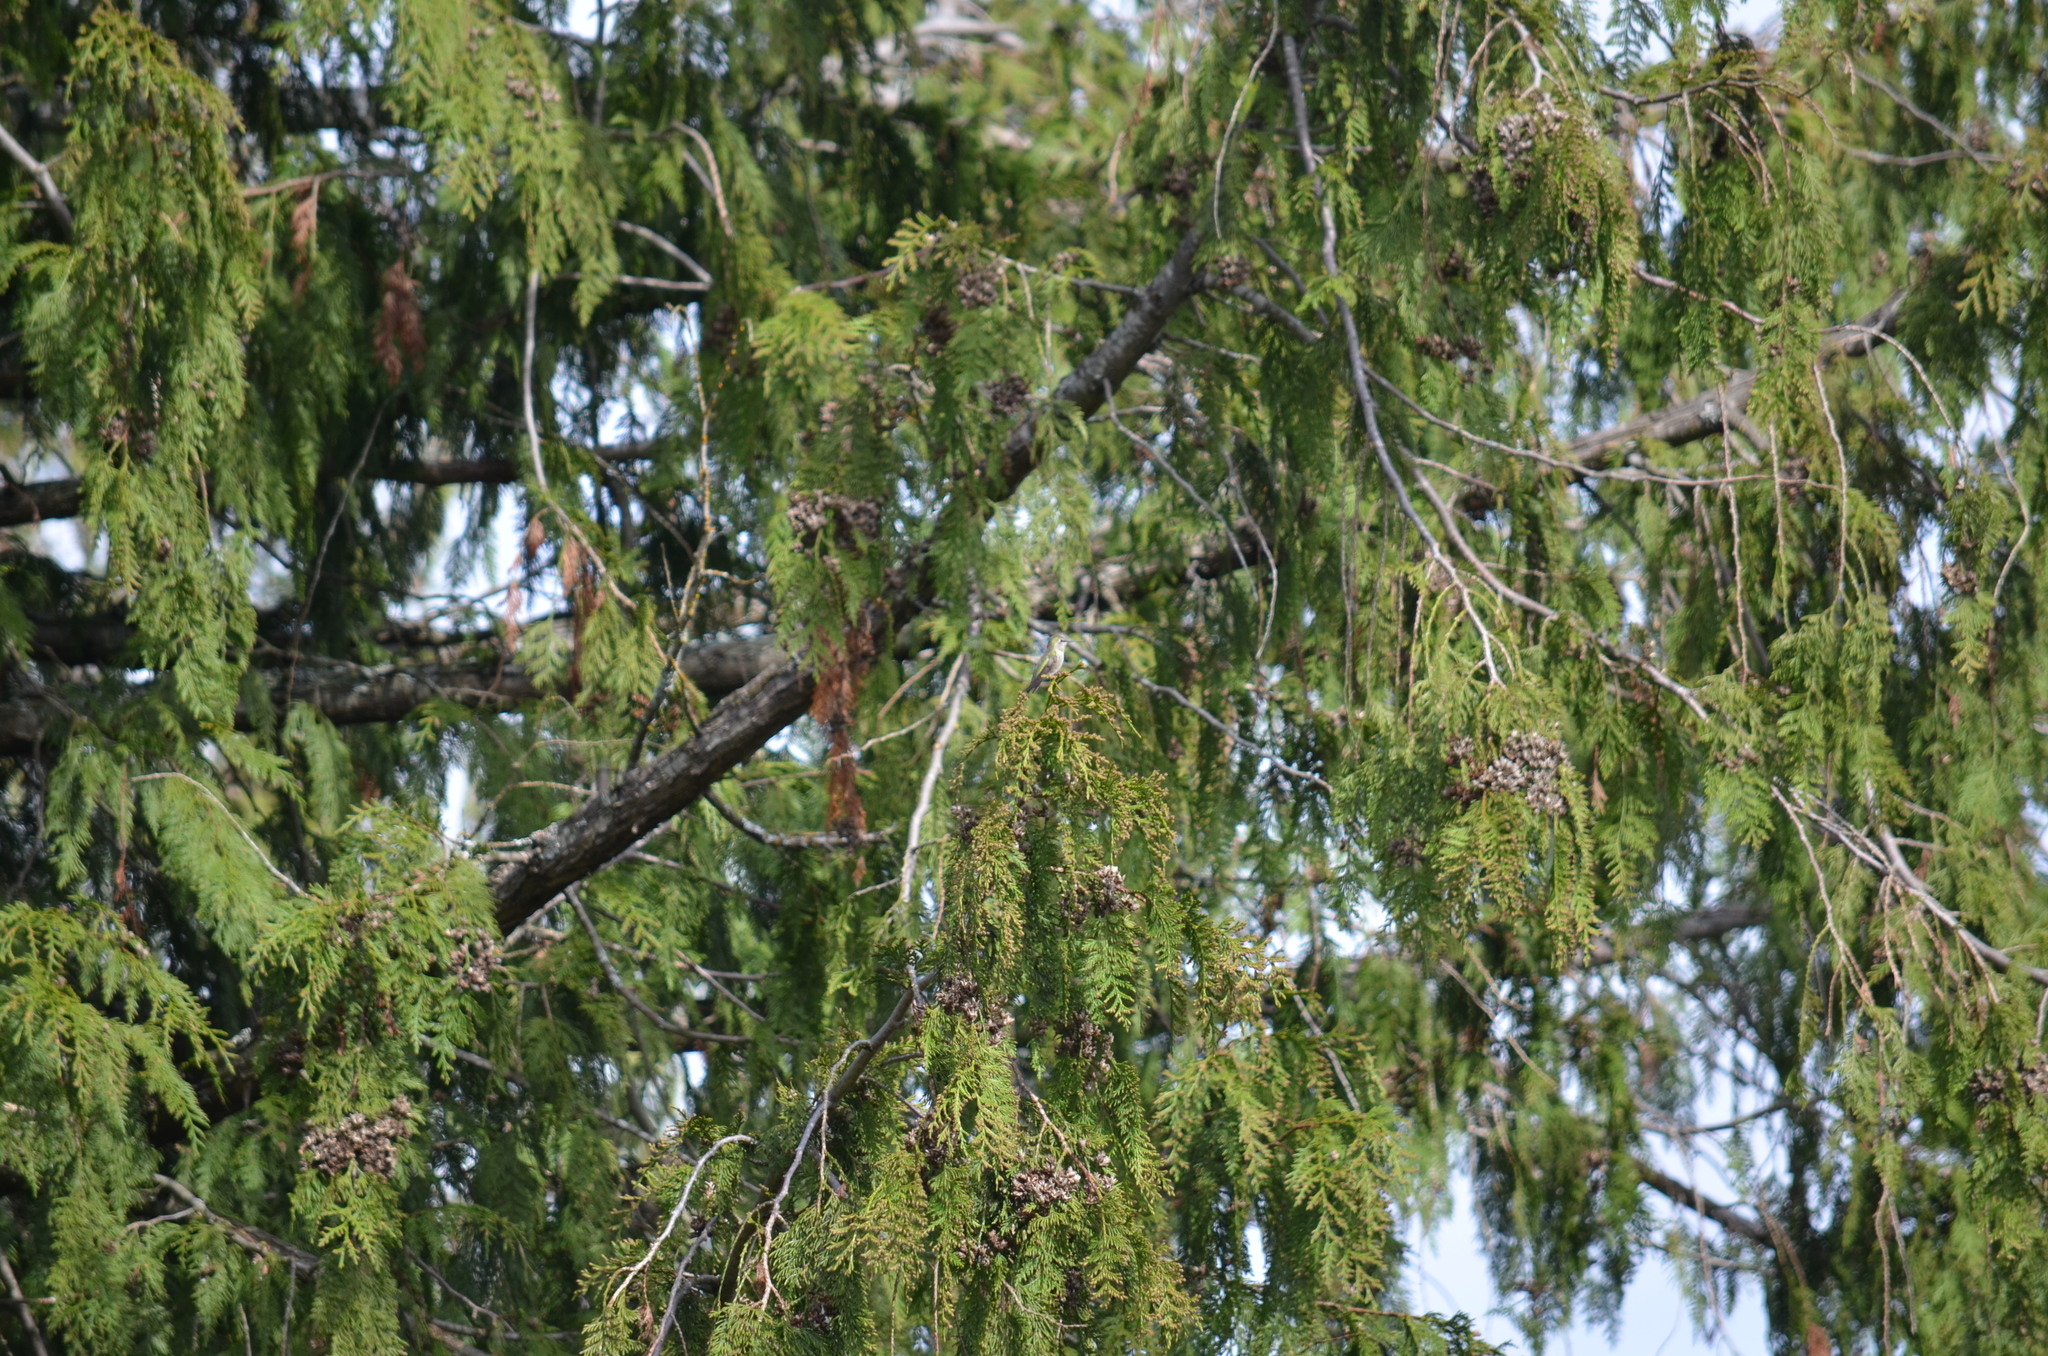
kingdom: Animalia
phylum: Chordata
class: Aves
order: Apodiformes
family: Trochilidae
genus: Calypte
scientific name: Calypte anna
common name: Anna's hummingbird
